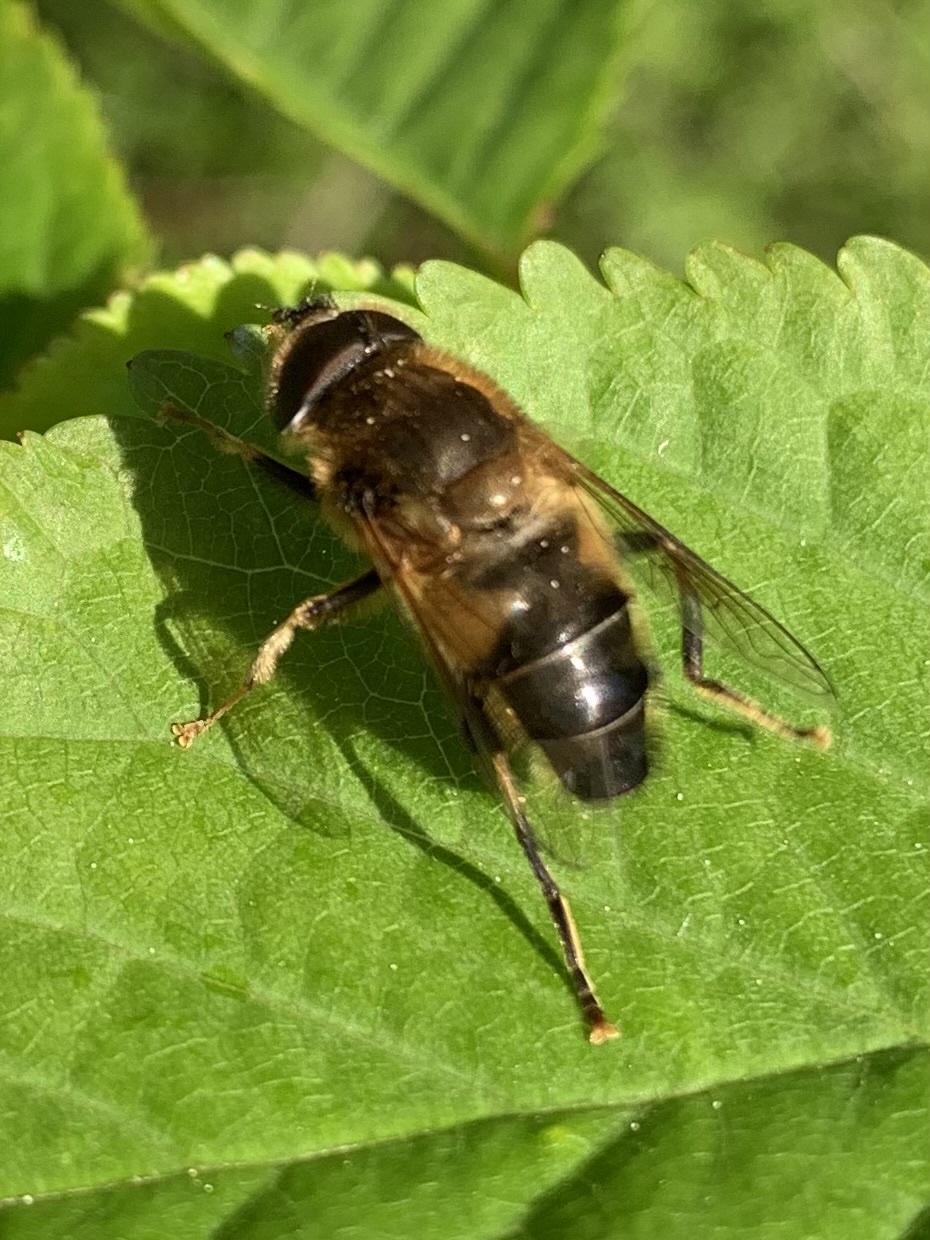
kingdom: Animalia
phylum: Arthropoda
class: Insecta
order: Diptera
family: Syrphidae
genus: Eristalis
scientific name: Eristalis pertinax
